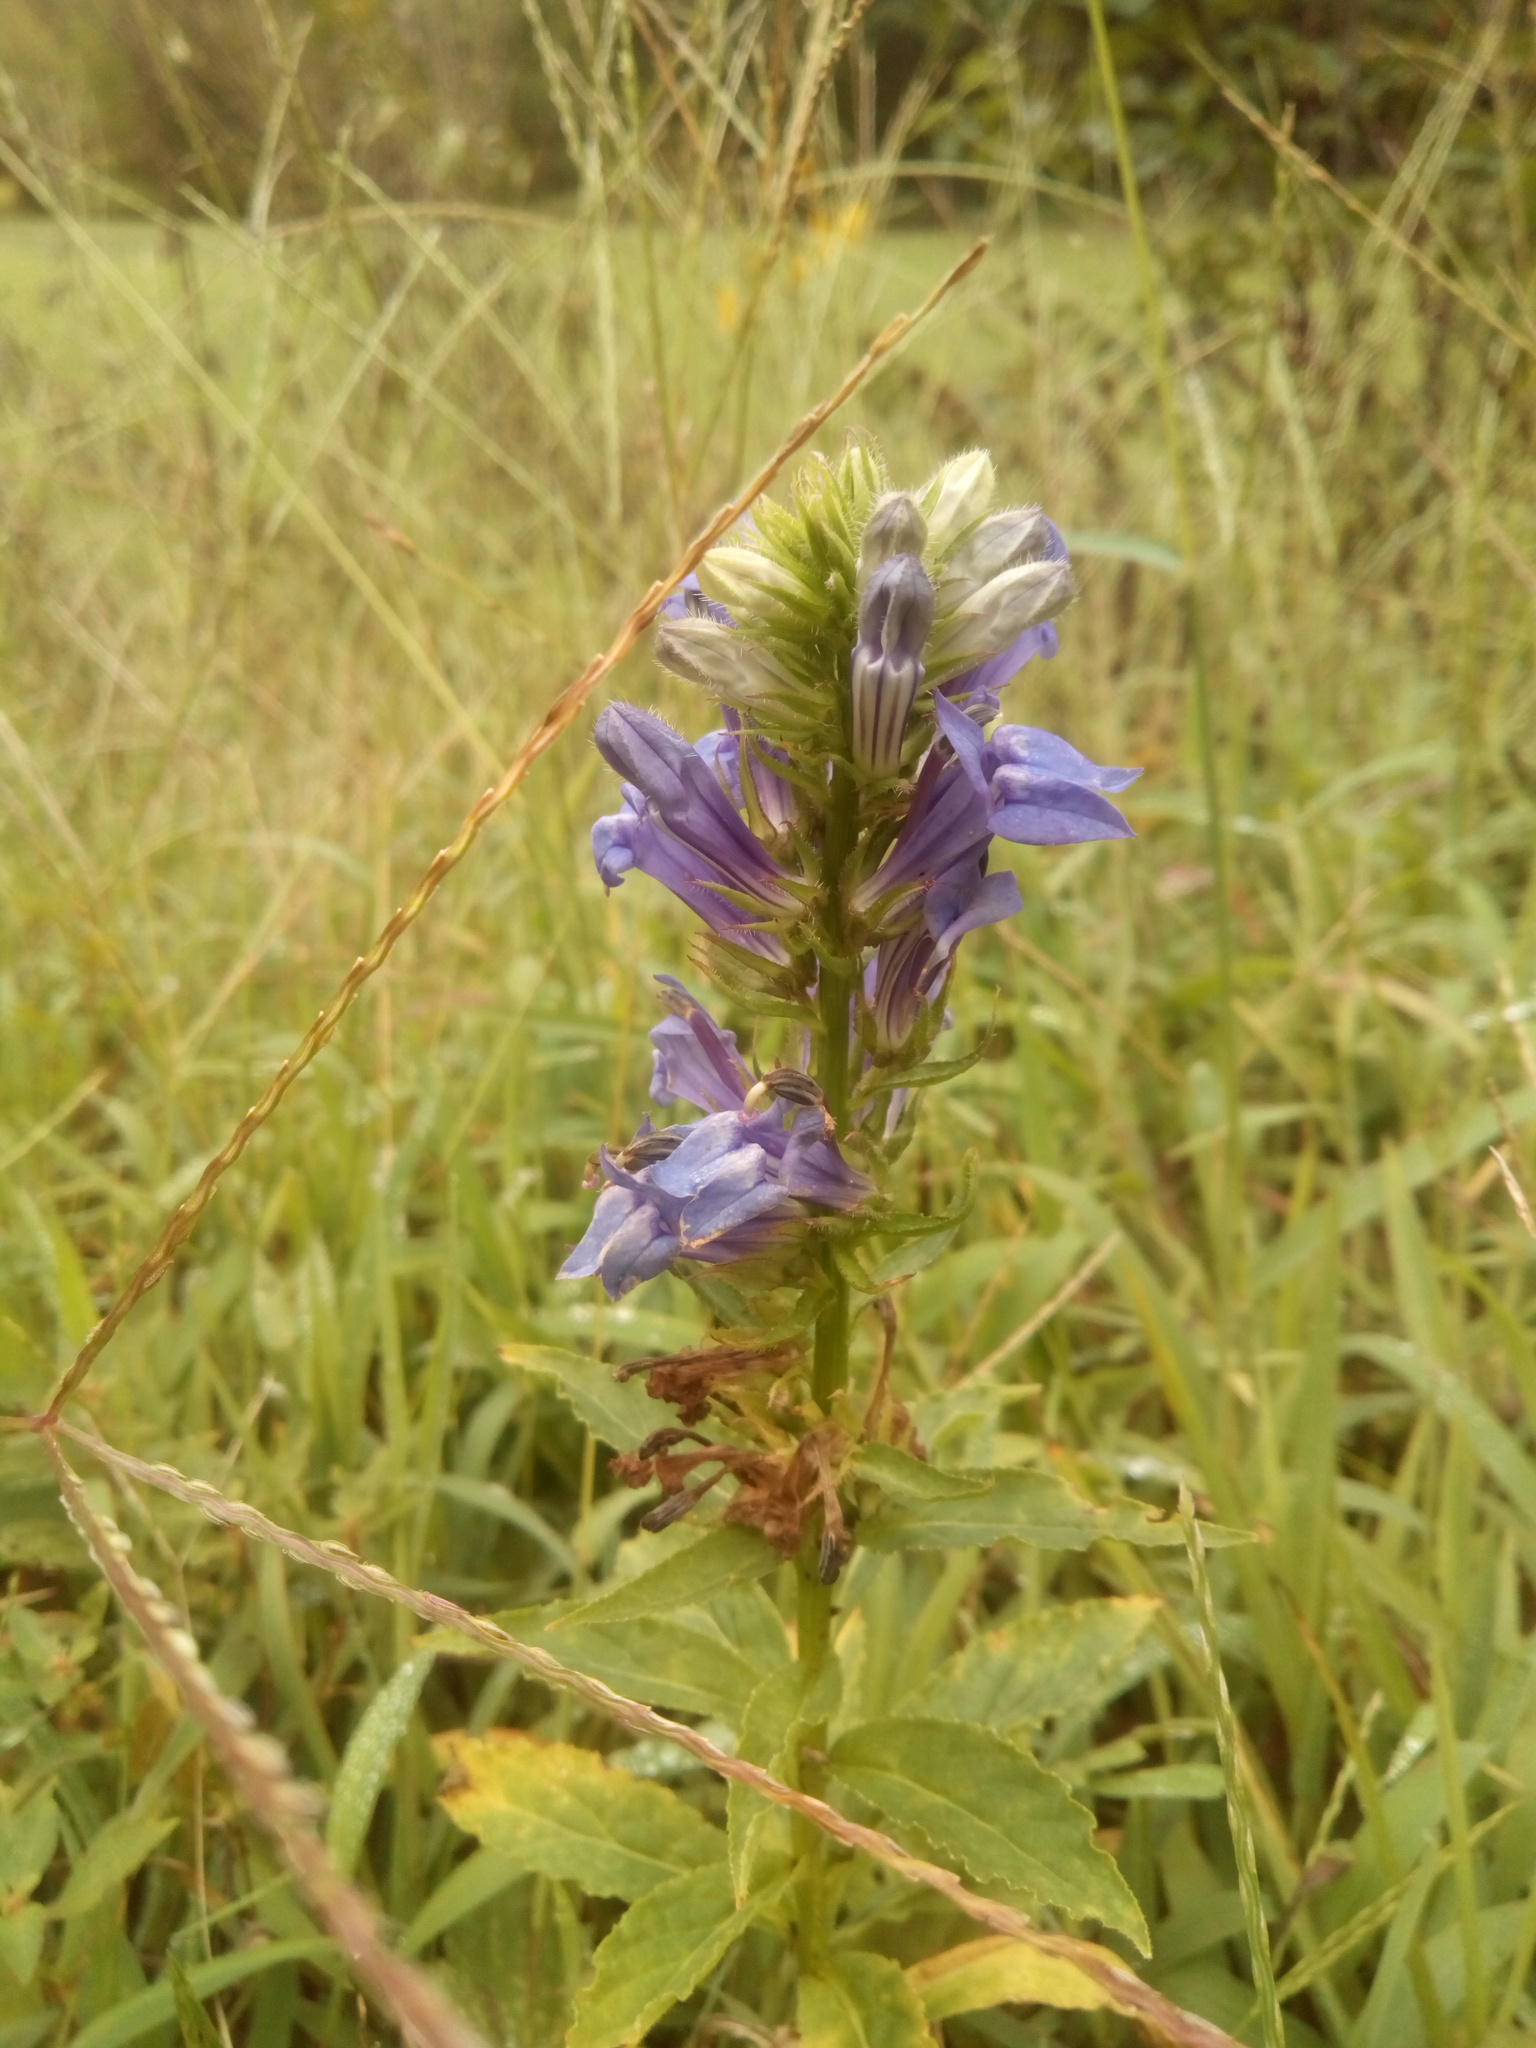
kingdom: Plantae
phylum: Tracheophyta
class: Magnoliopsida
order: Asterales
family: Campanulaceae
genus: Lobelia
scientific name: Lobelia siphilitica
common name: Great lobelia
